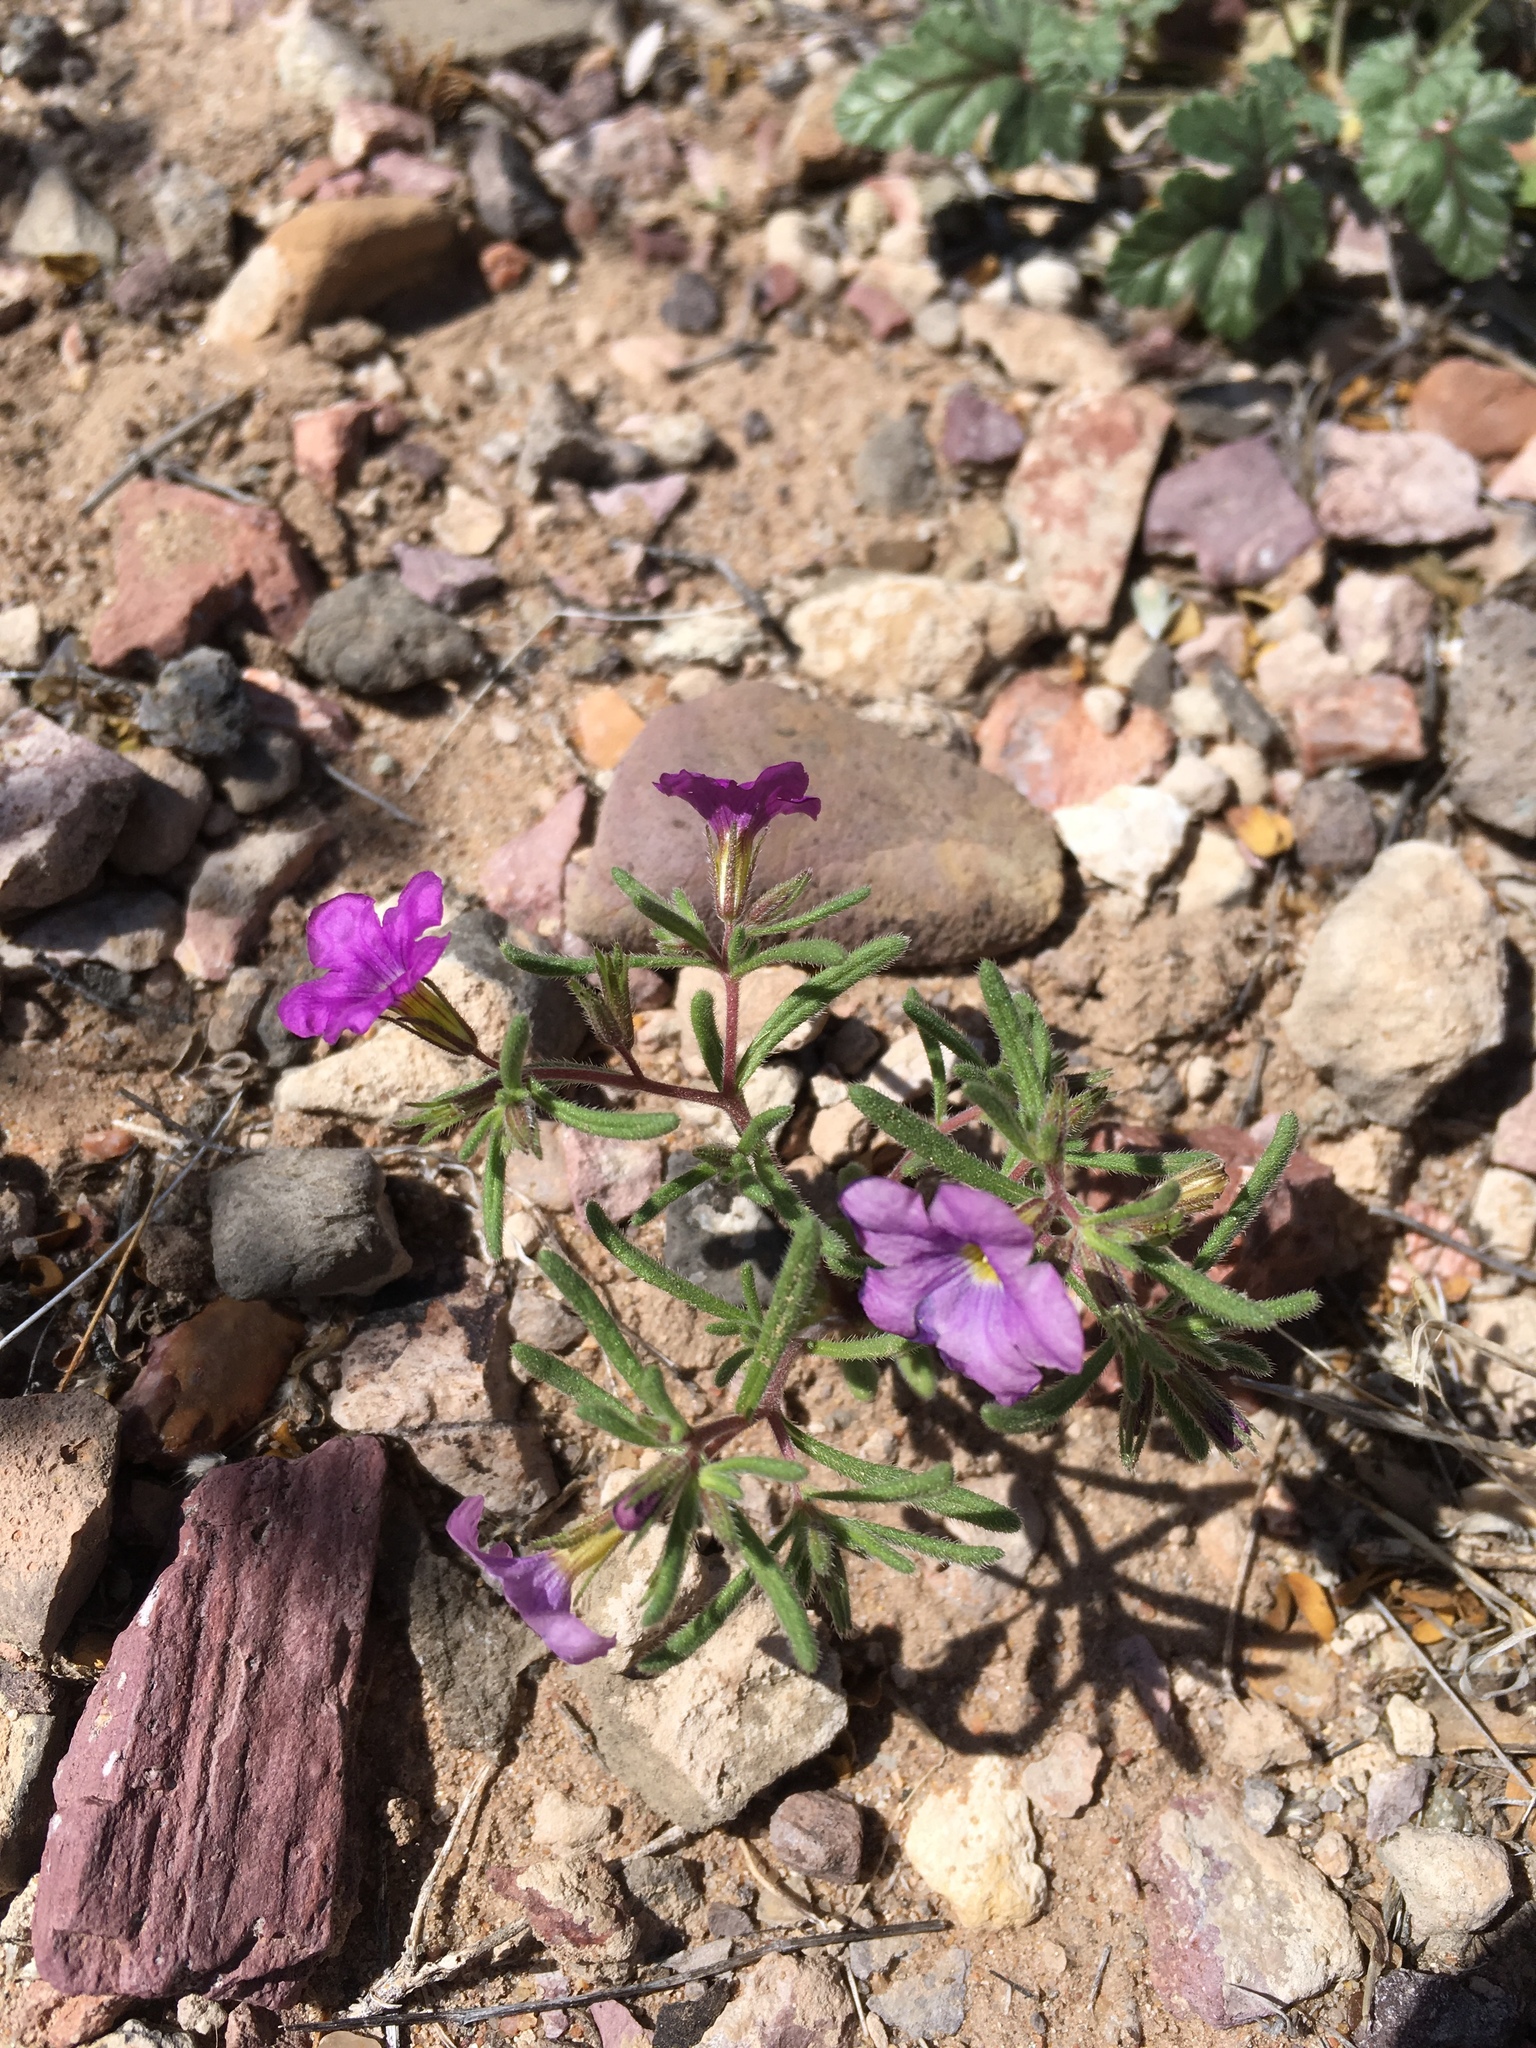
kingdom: Plantae
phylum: Tracheophyta
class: Magnoliopsida
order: Boraginales
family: Namaceae
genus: Nama
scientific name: Nama hispida
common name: Bristly nama
